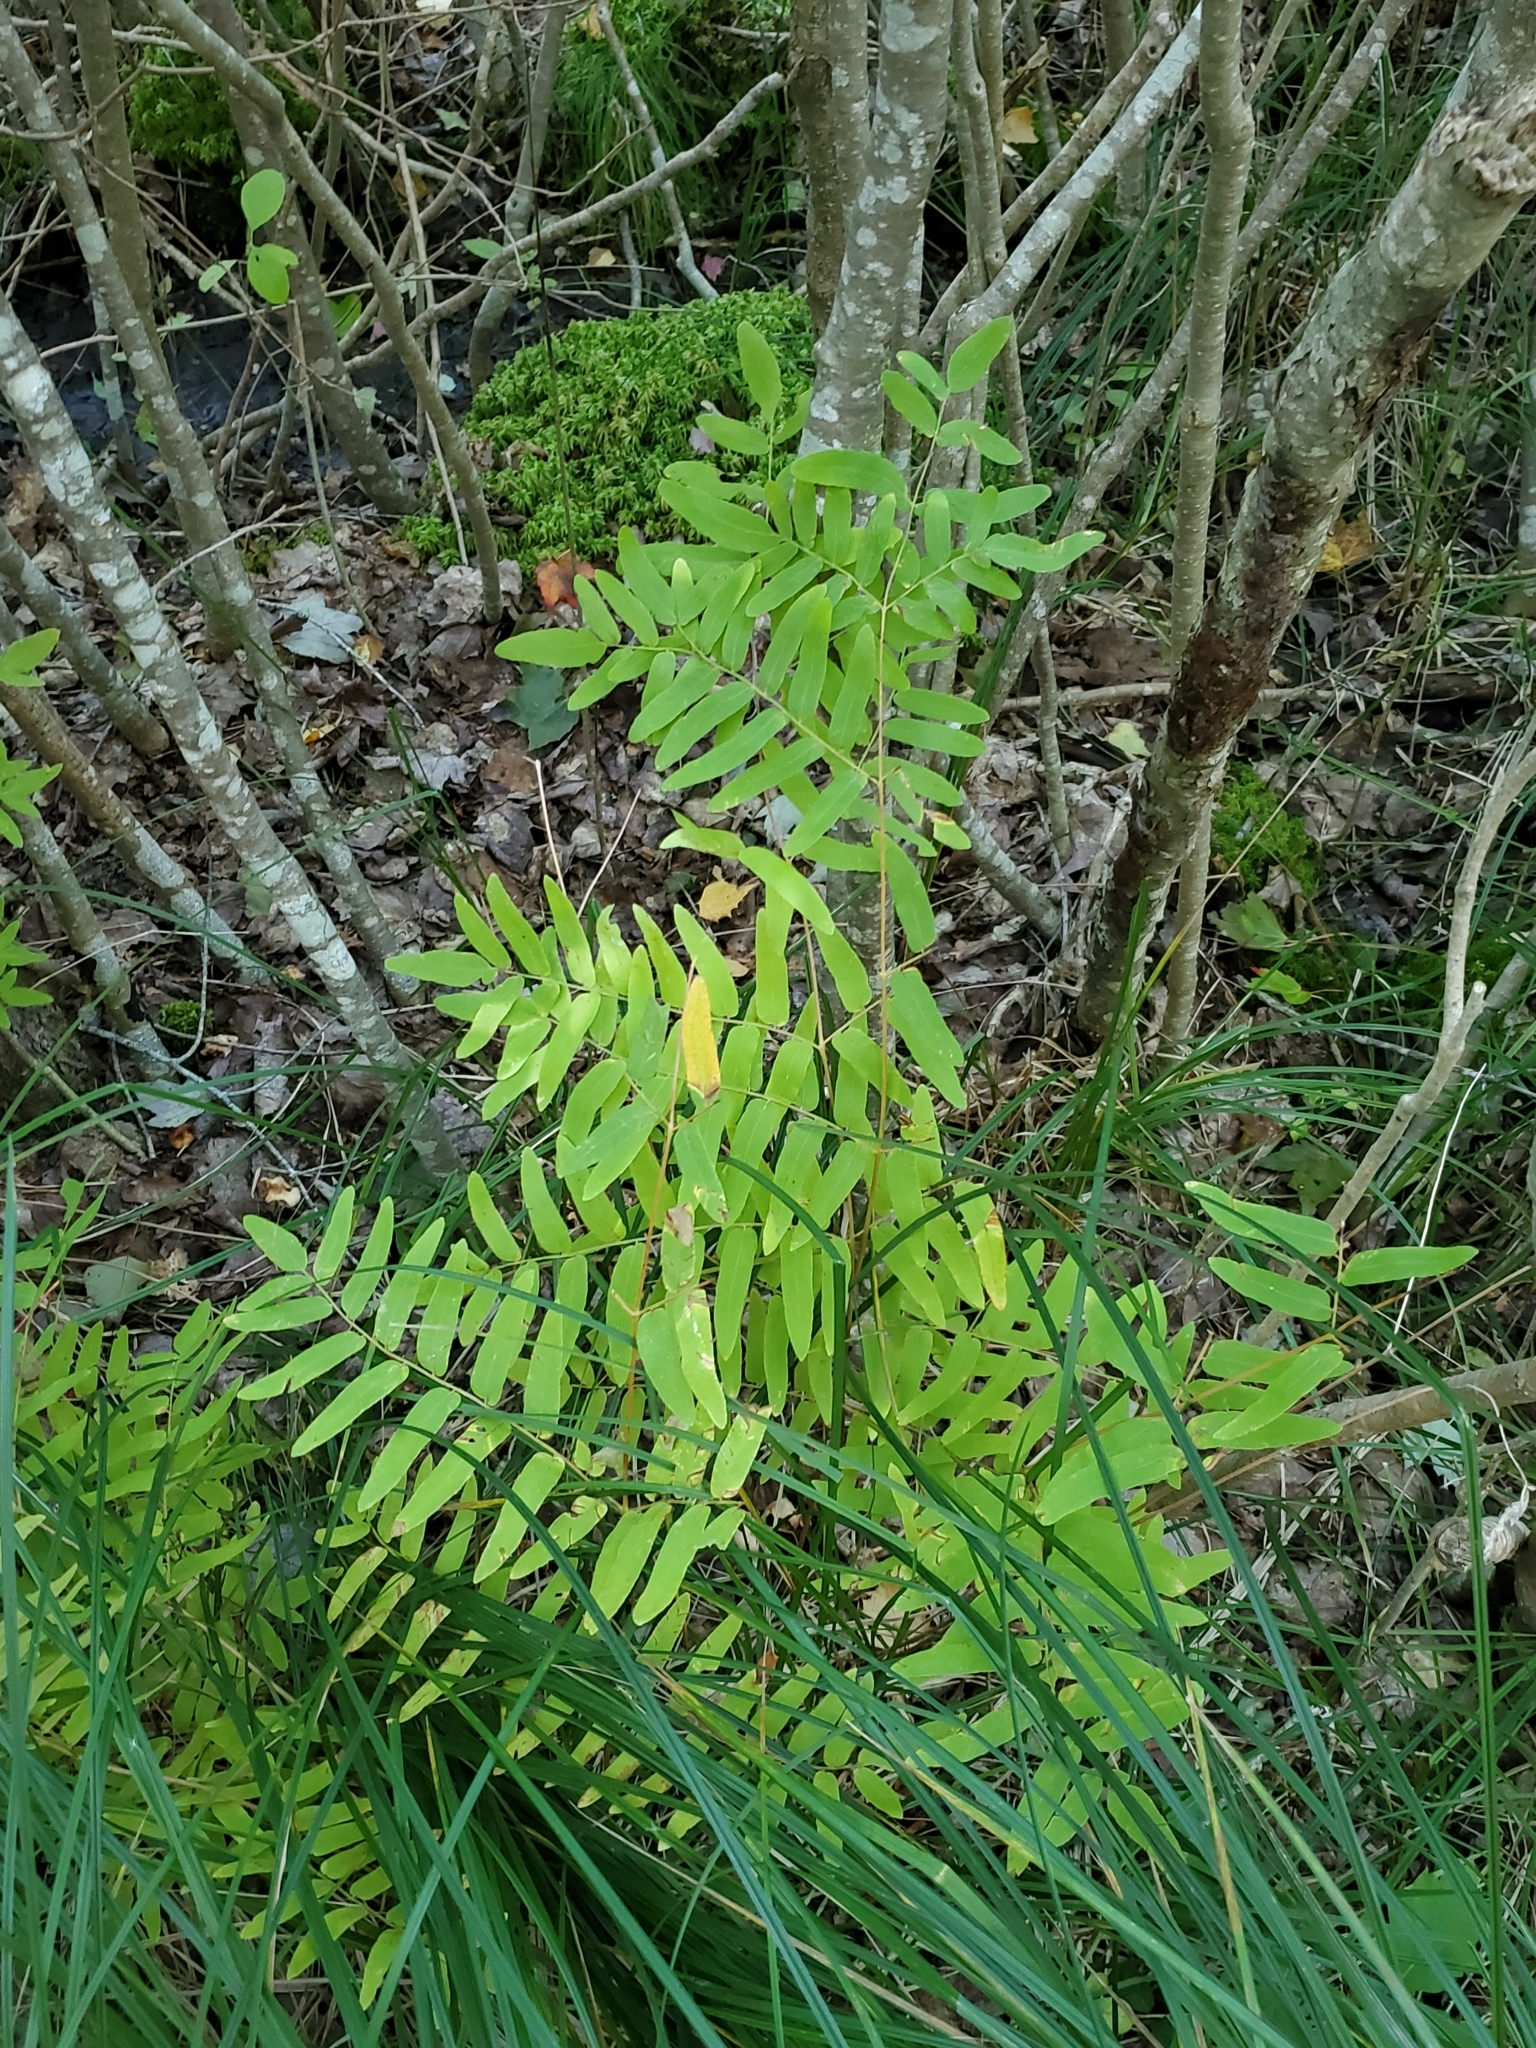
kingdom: Plantae
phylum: Tracheophyta
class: Polypodiopsida
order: Osmundales
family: Osmundaceae
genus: Osmunda
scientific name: Osmunda spectabilis
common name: American royal fern
